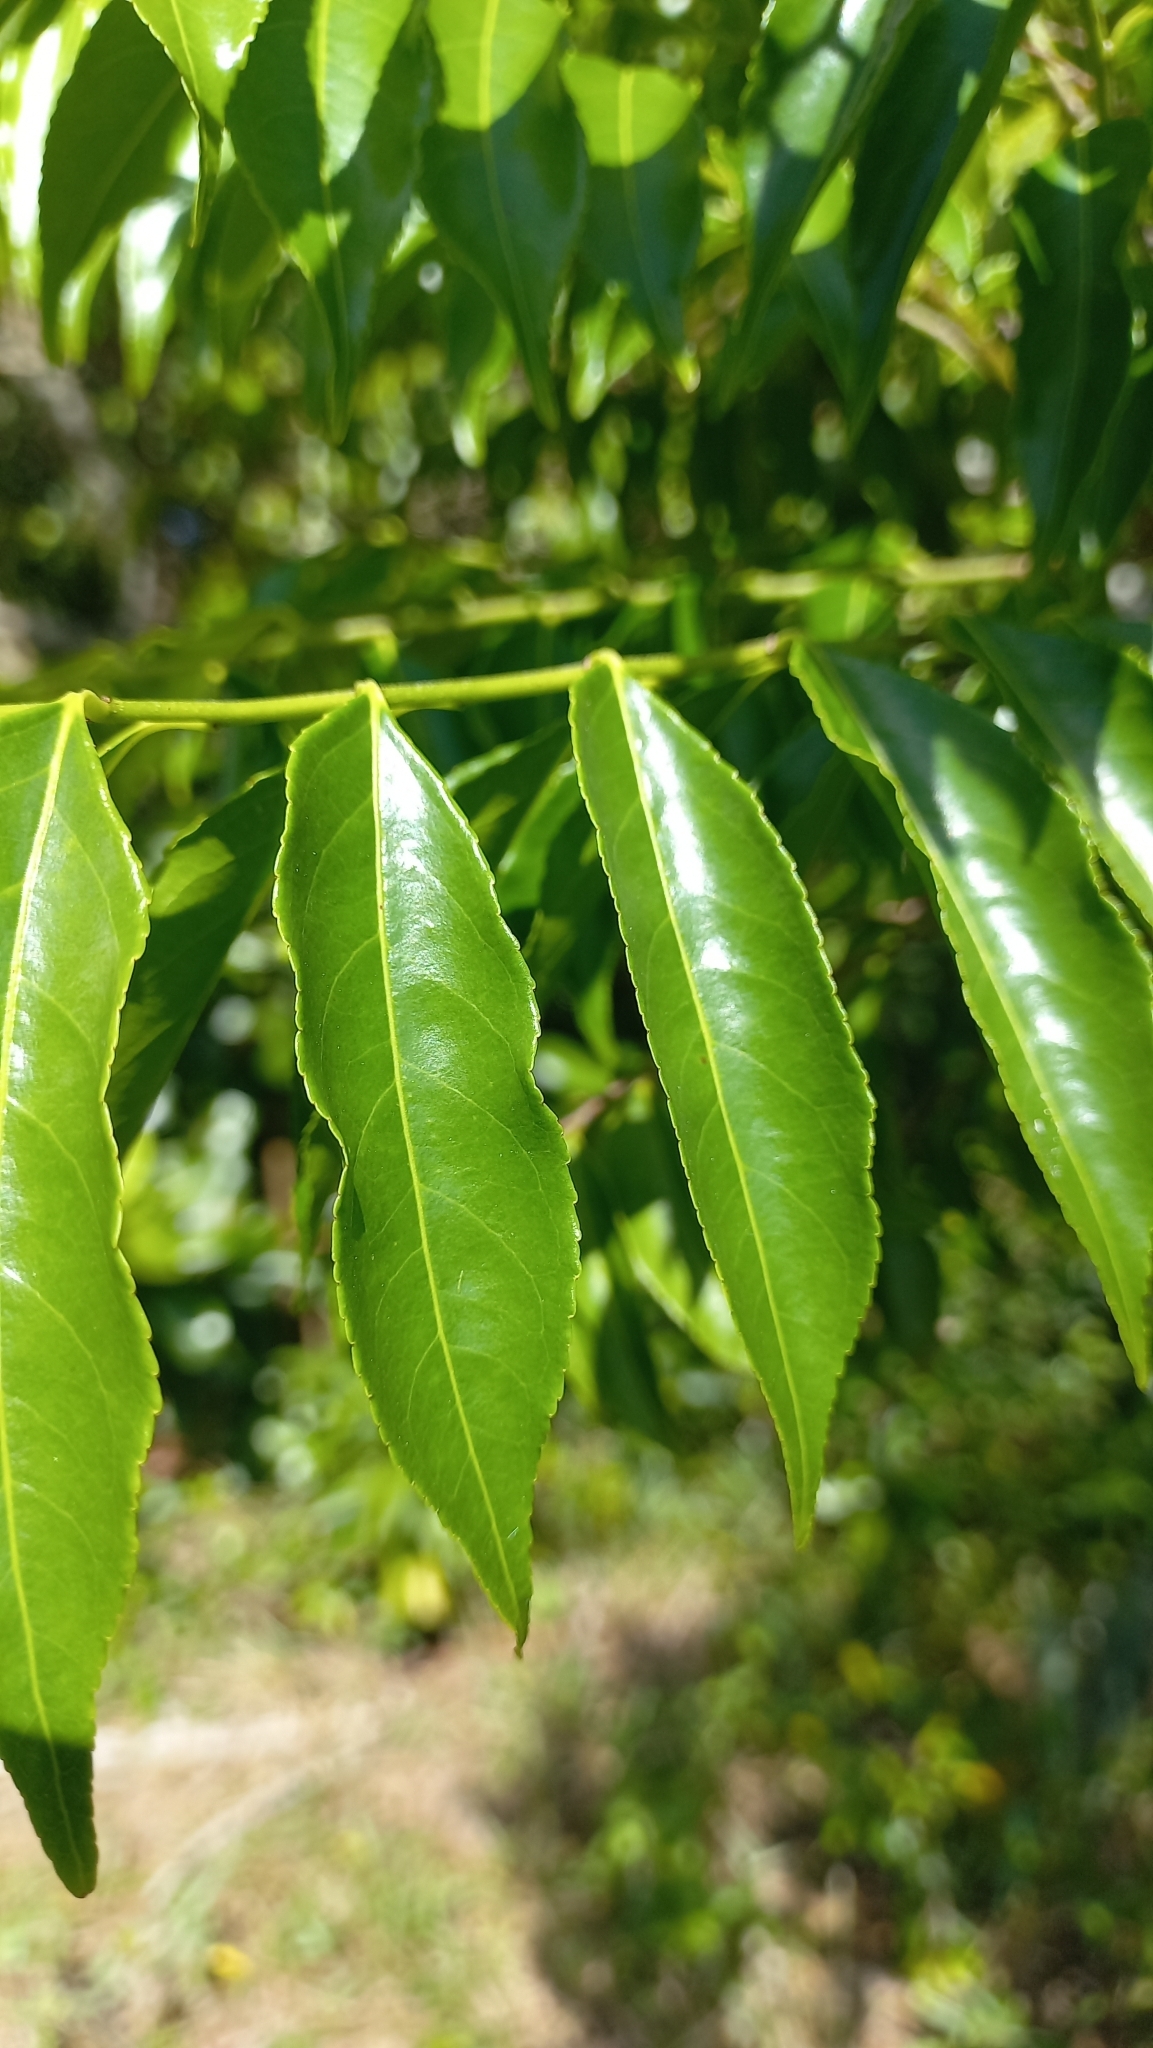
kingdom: Plantae
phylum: Tracheophyta
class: Magnoliopsida
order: Malpighiales
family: Salicaceae
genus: Casearia
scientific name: Casearia sylvestris
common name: Wild sage
